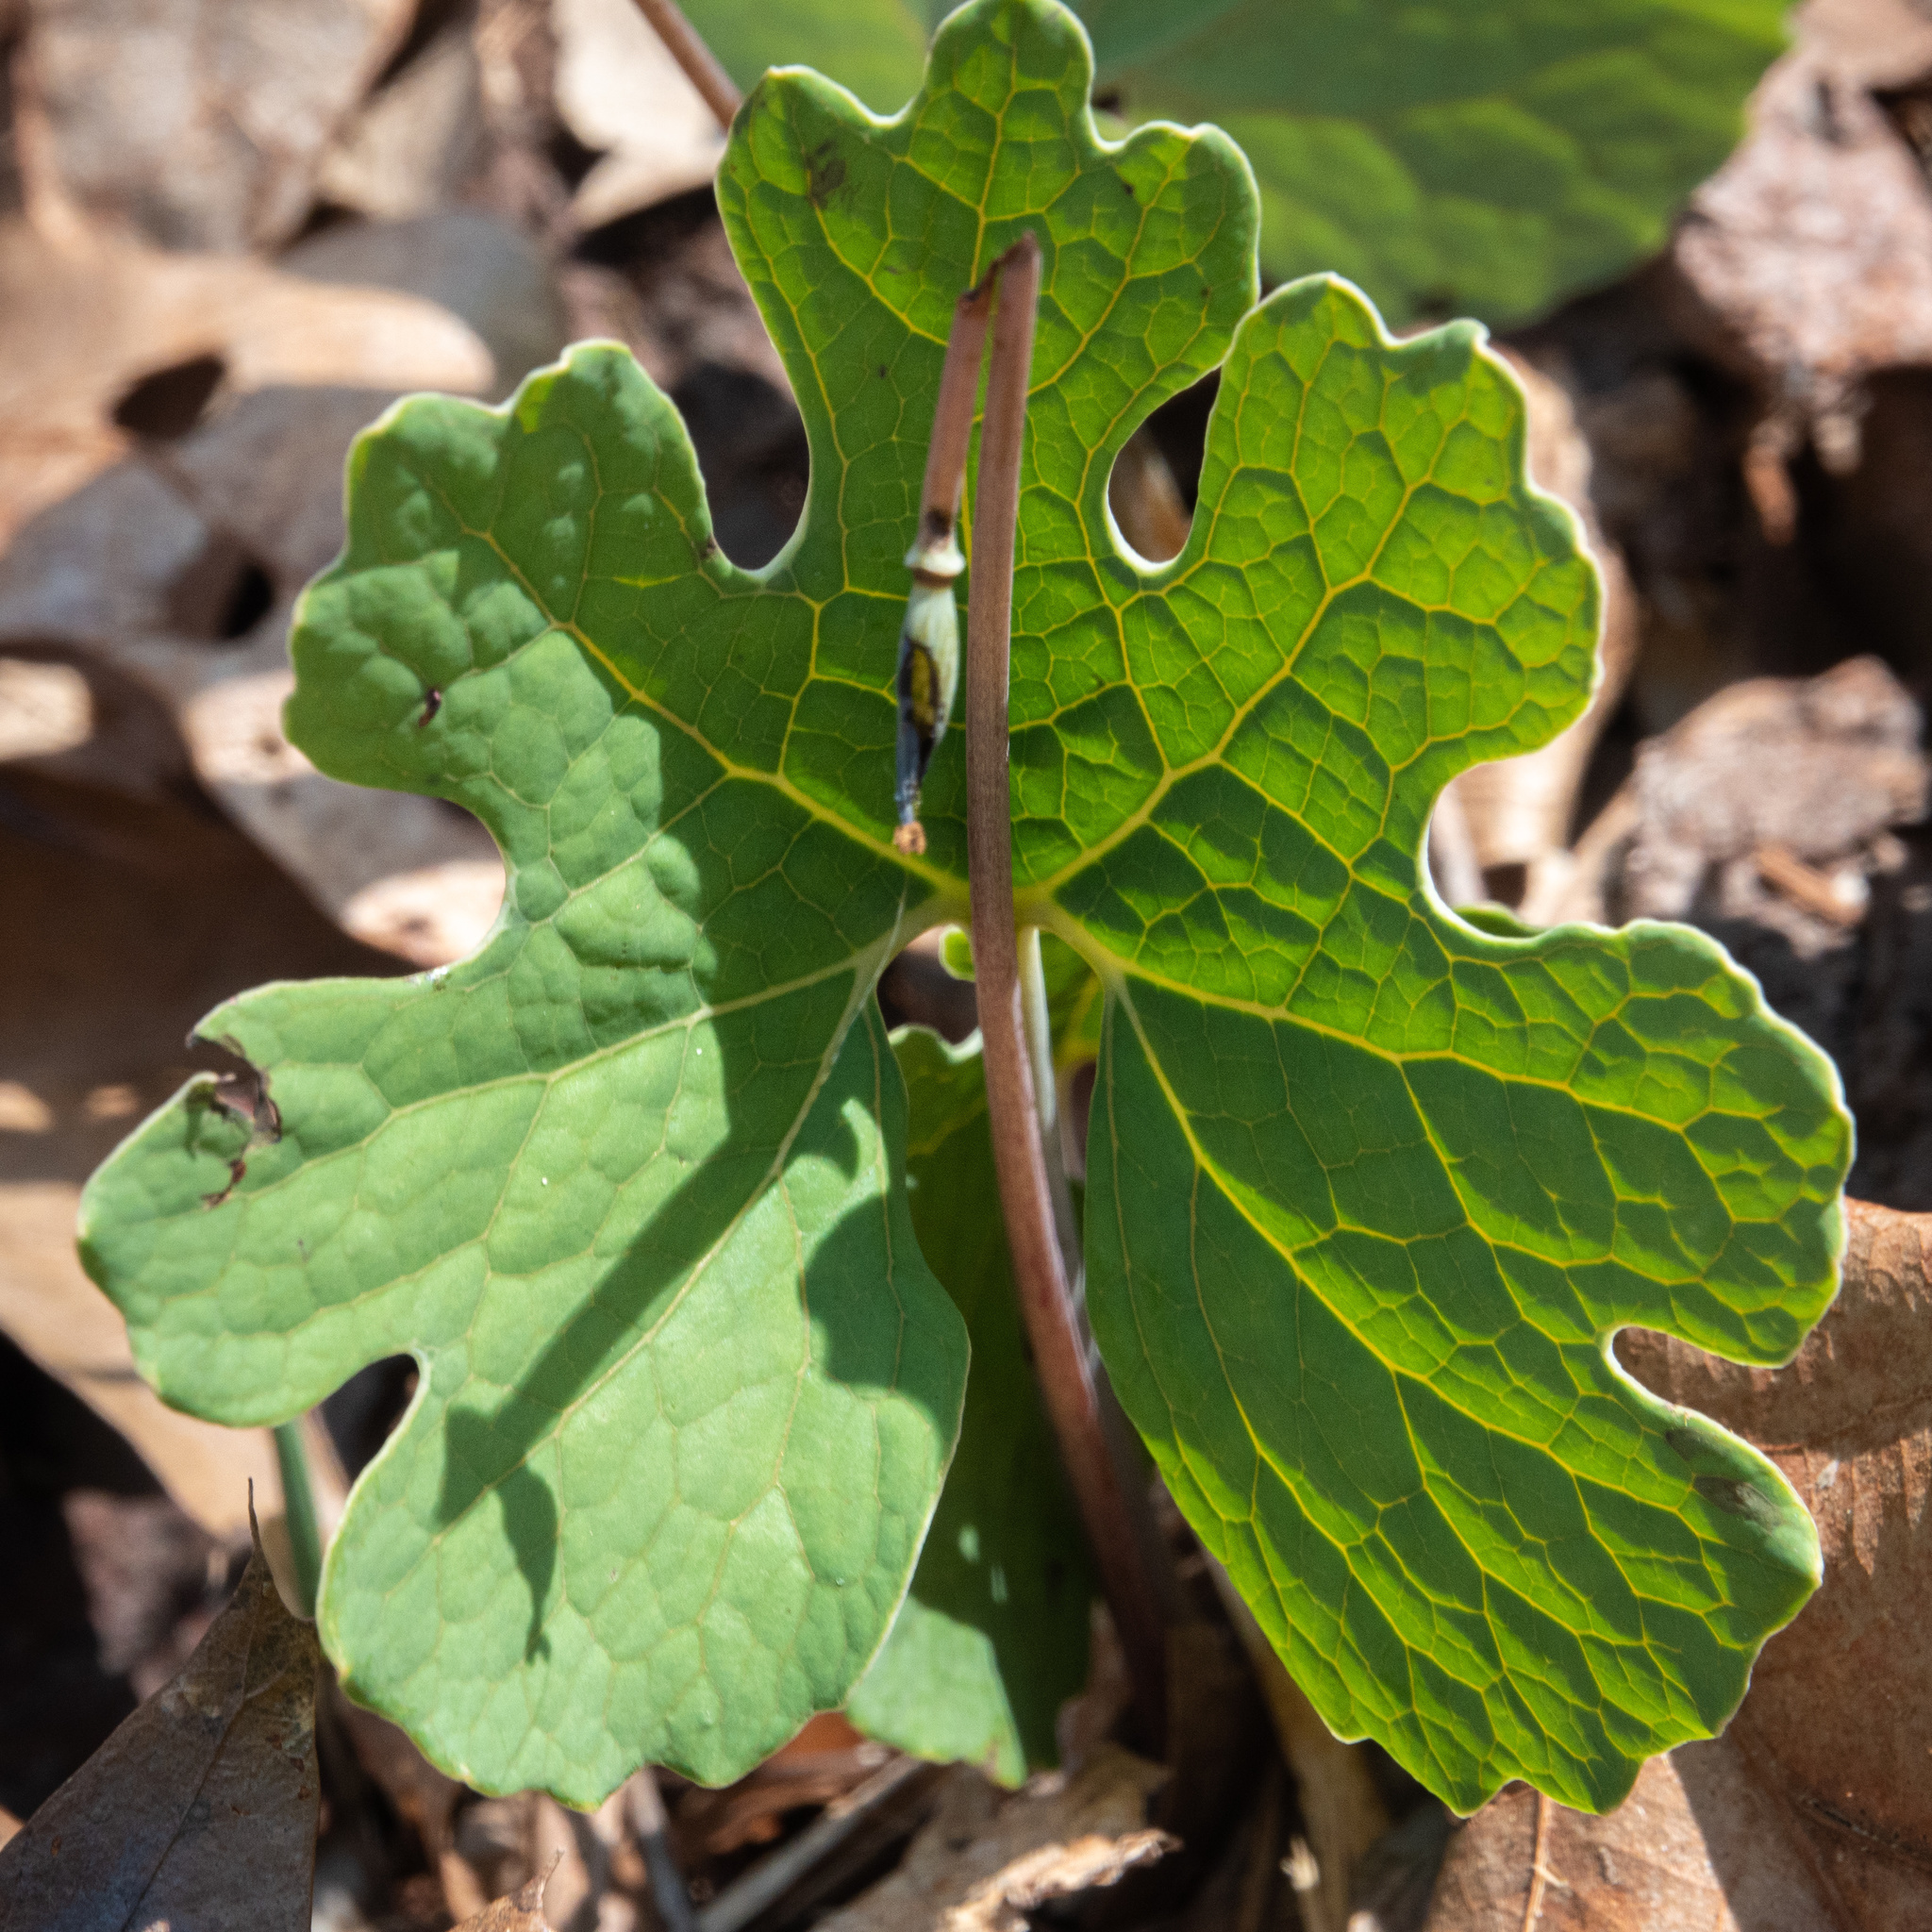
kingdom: Plantae
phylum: Tracheophyta
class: Magnoliopsida
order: Ranunculales
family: Papaveraceae
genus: Sanguinaria
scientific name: Sanguinaria canadensis
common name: Bloodroot
